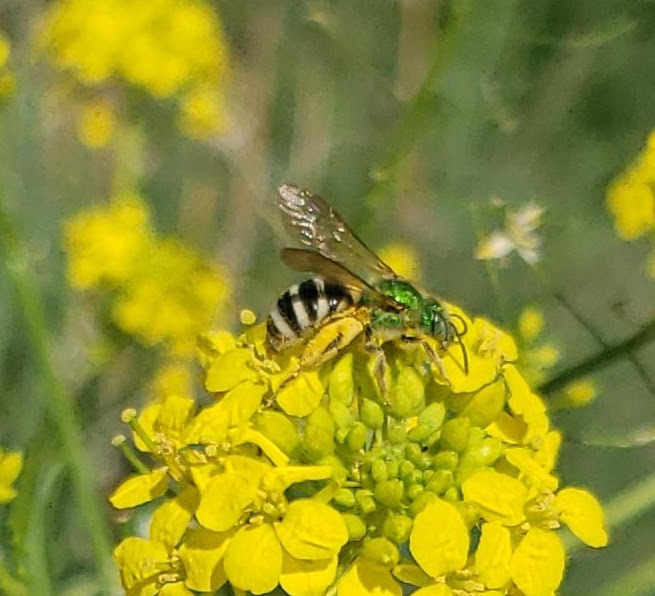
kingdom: Animalia
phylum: Arthropoda
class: Insecta
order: Hymenoptera
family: Halictidae
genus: Agapostemon
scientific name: Agapostemon virescens
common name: Bicolored striped sweat bee
